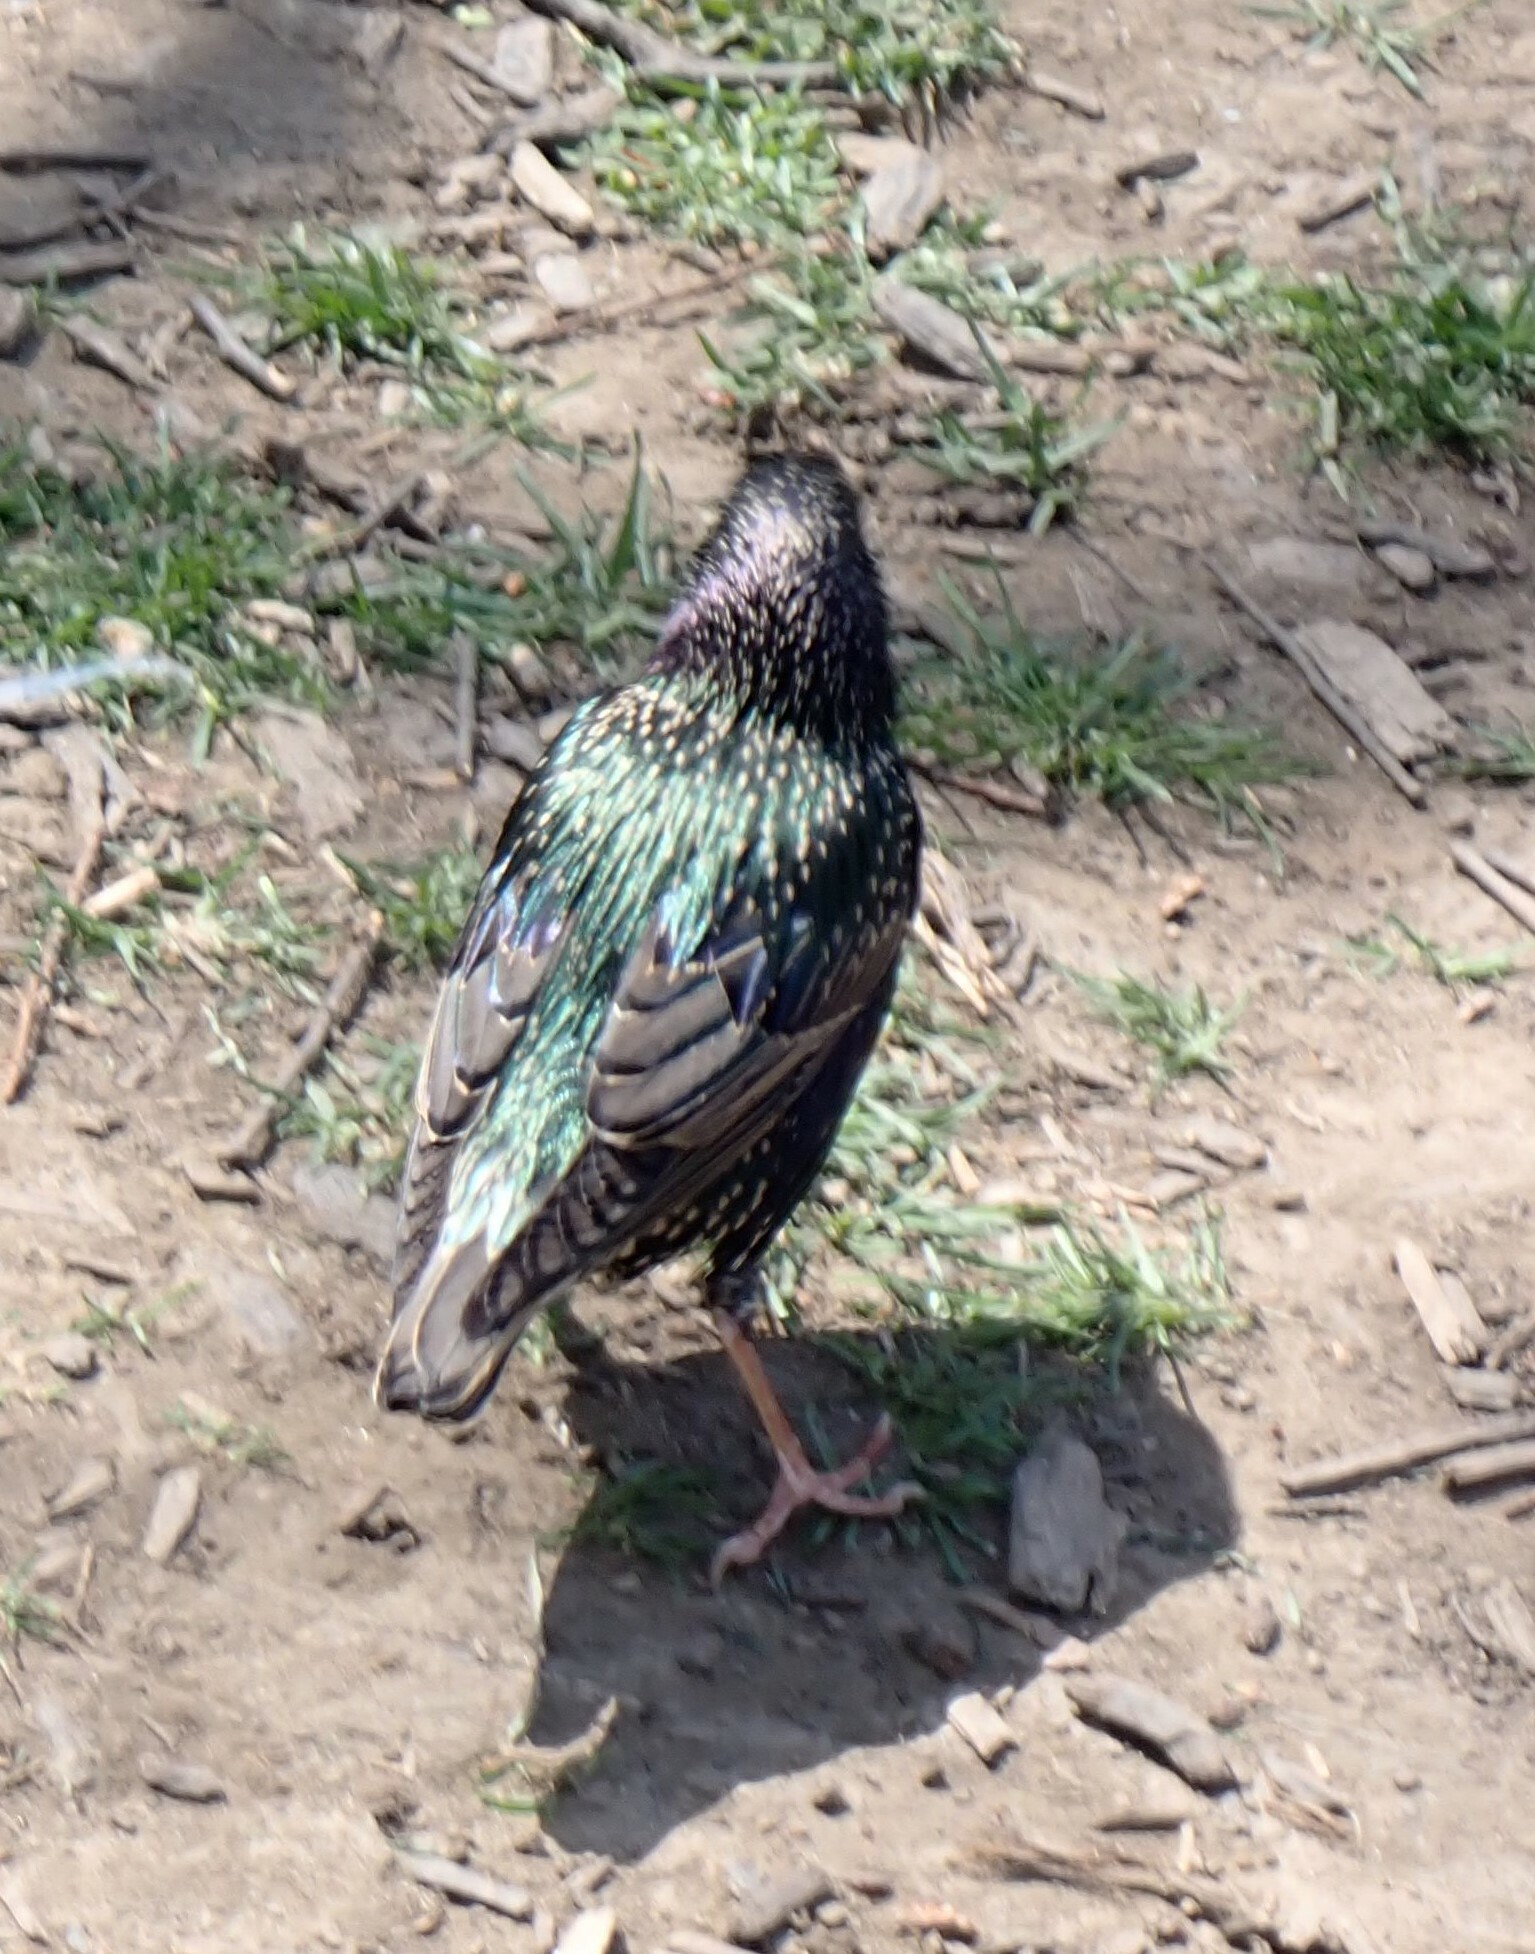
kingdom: Animalia
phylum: Chordata
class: Aves
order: Passeriformes
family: Sturnidae
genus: Sturnus
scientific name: Sturnus vulgaris
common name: Common starling
